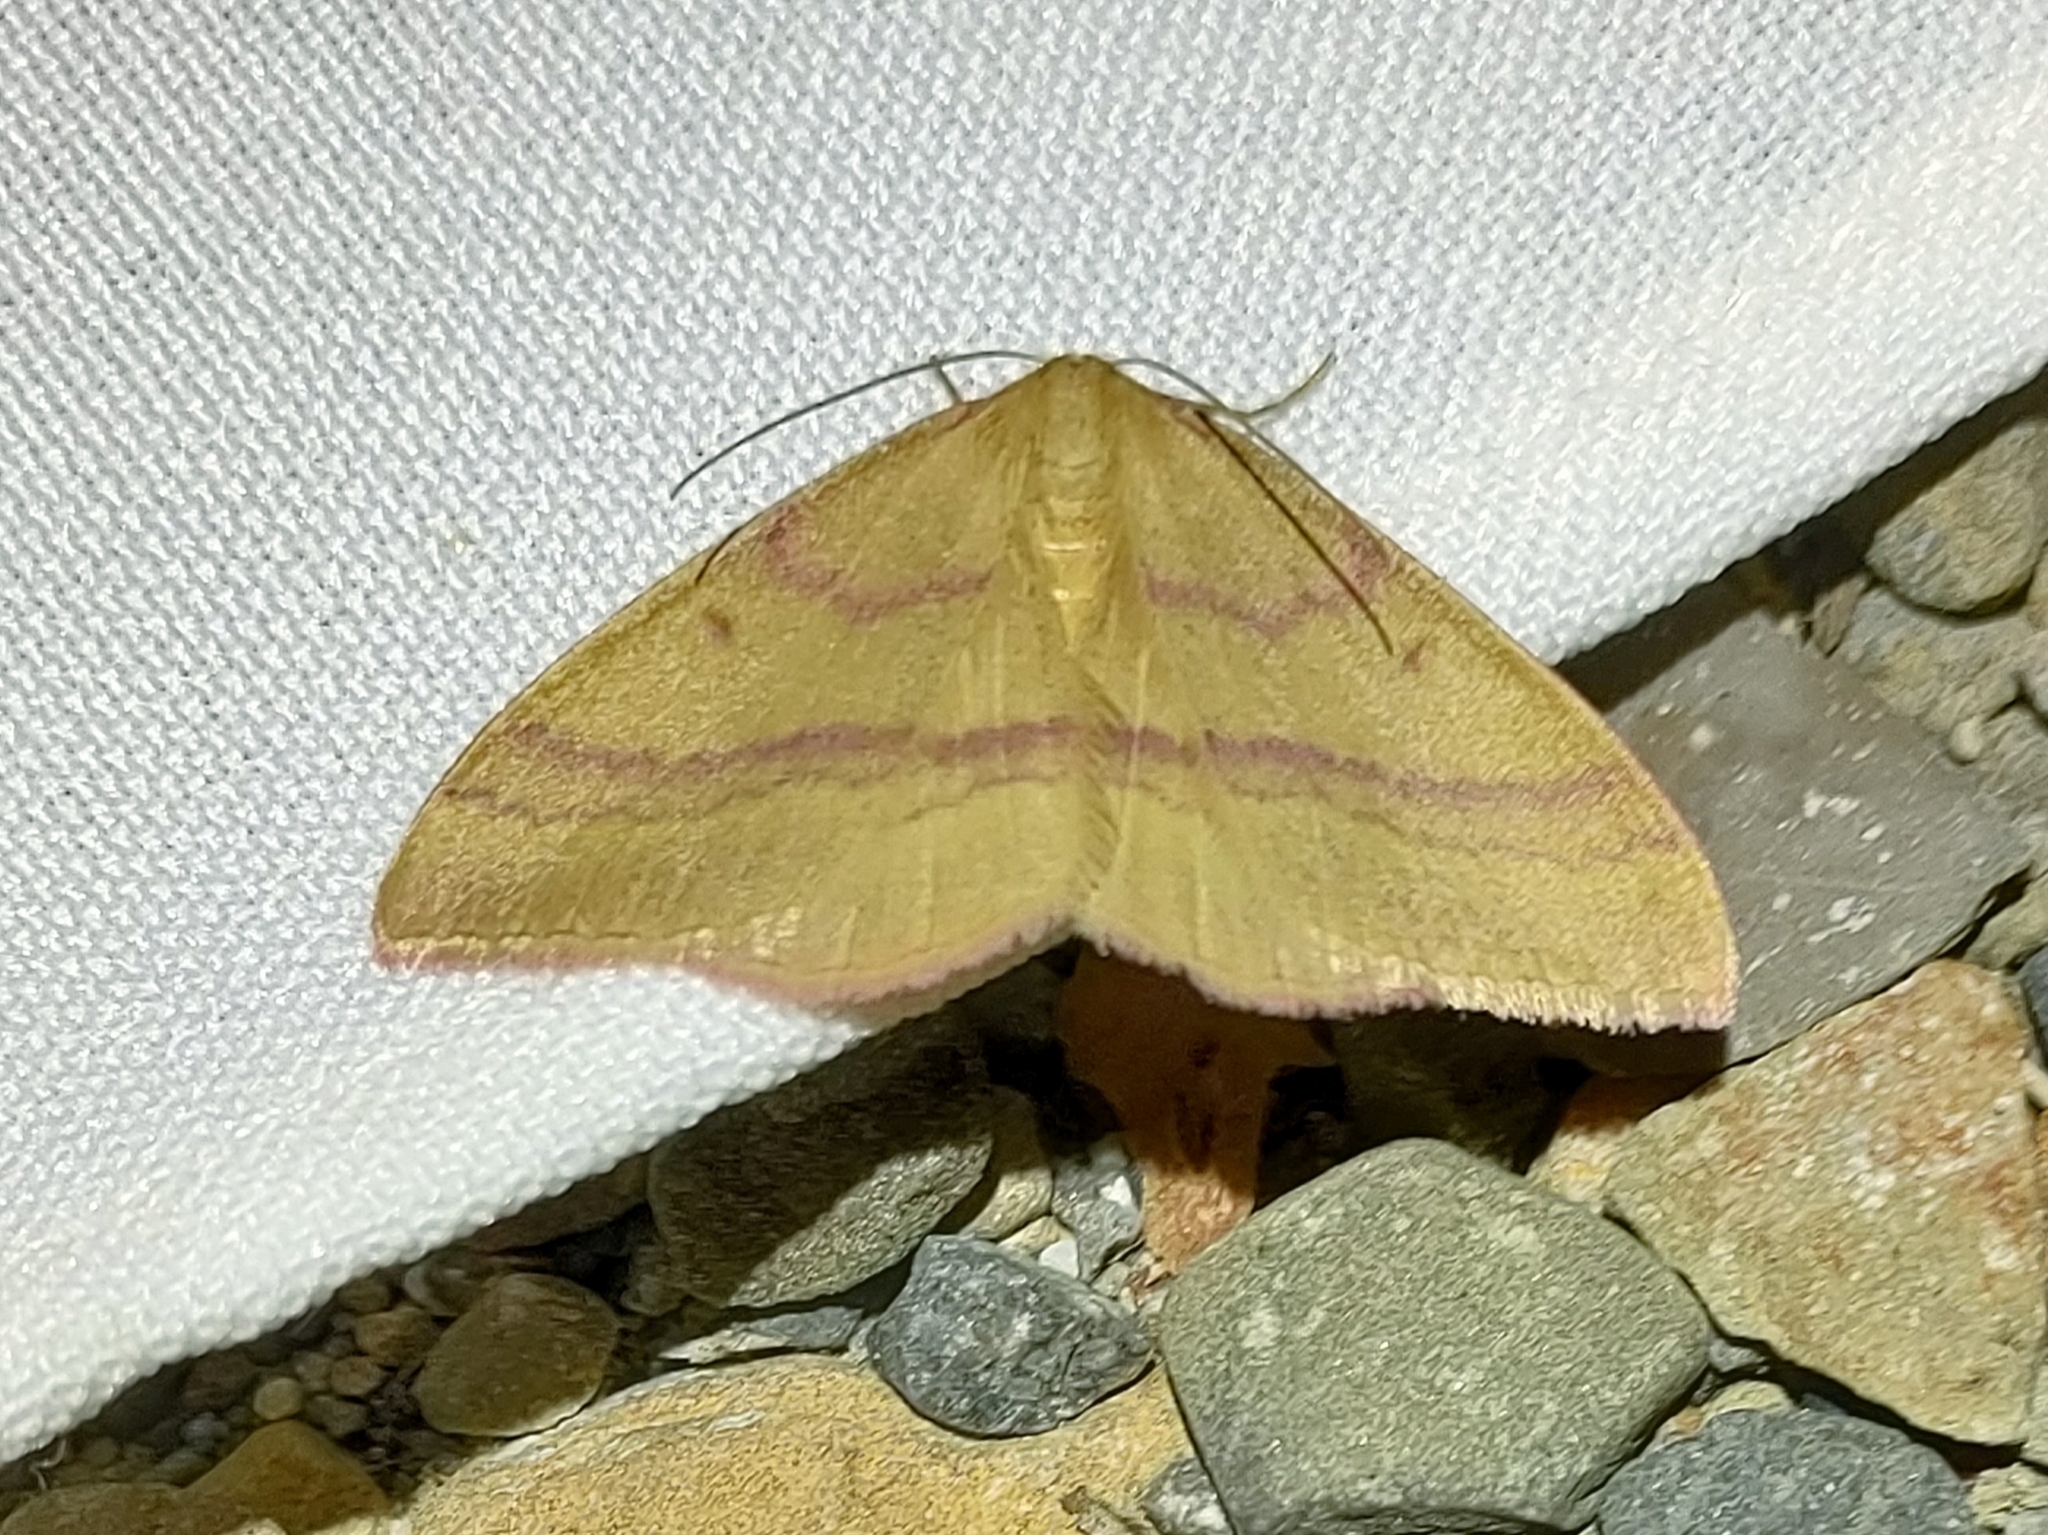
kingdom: Animalia
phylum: Arthropoda
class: Insecta
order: Lepidoptera
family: Geometridae
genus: Rhodostrophia
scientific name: Rhodostrophia calabra
